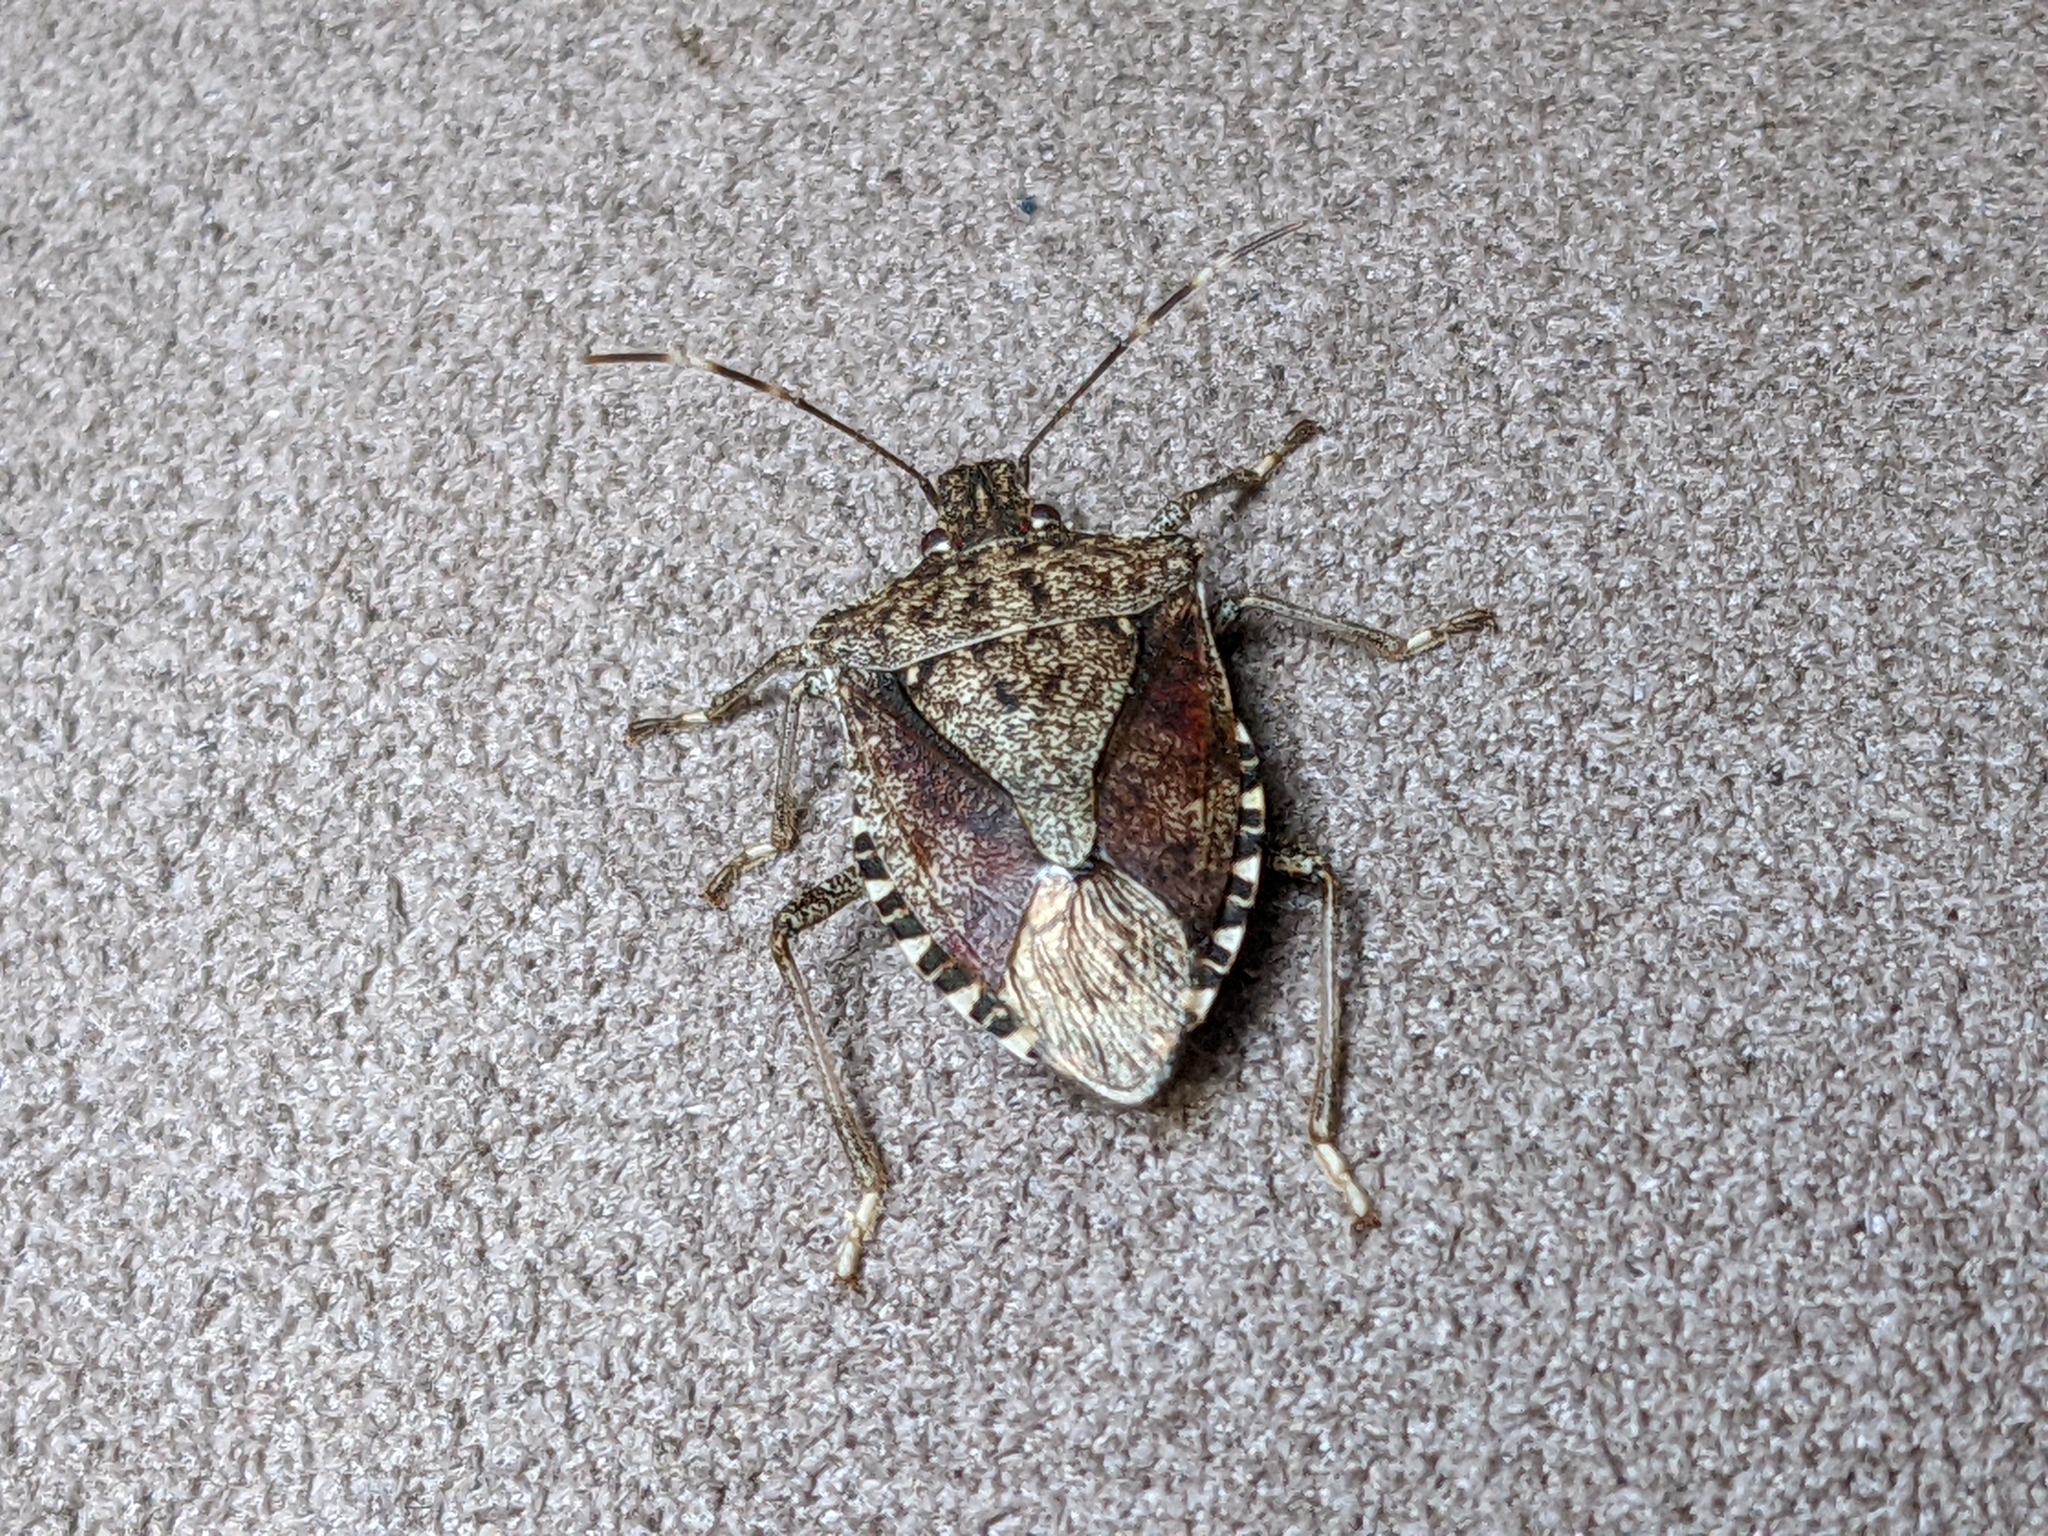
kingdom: Animalia
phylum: Arthropoda
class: Insecta
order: Hemiptera
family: Pentatomidae
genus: Halyomorpha
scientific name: Halyomorpha halys
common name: Brown marmorated stink bug
